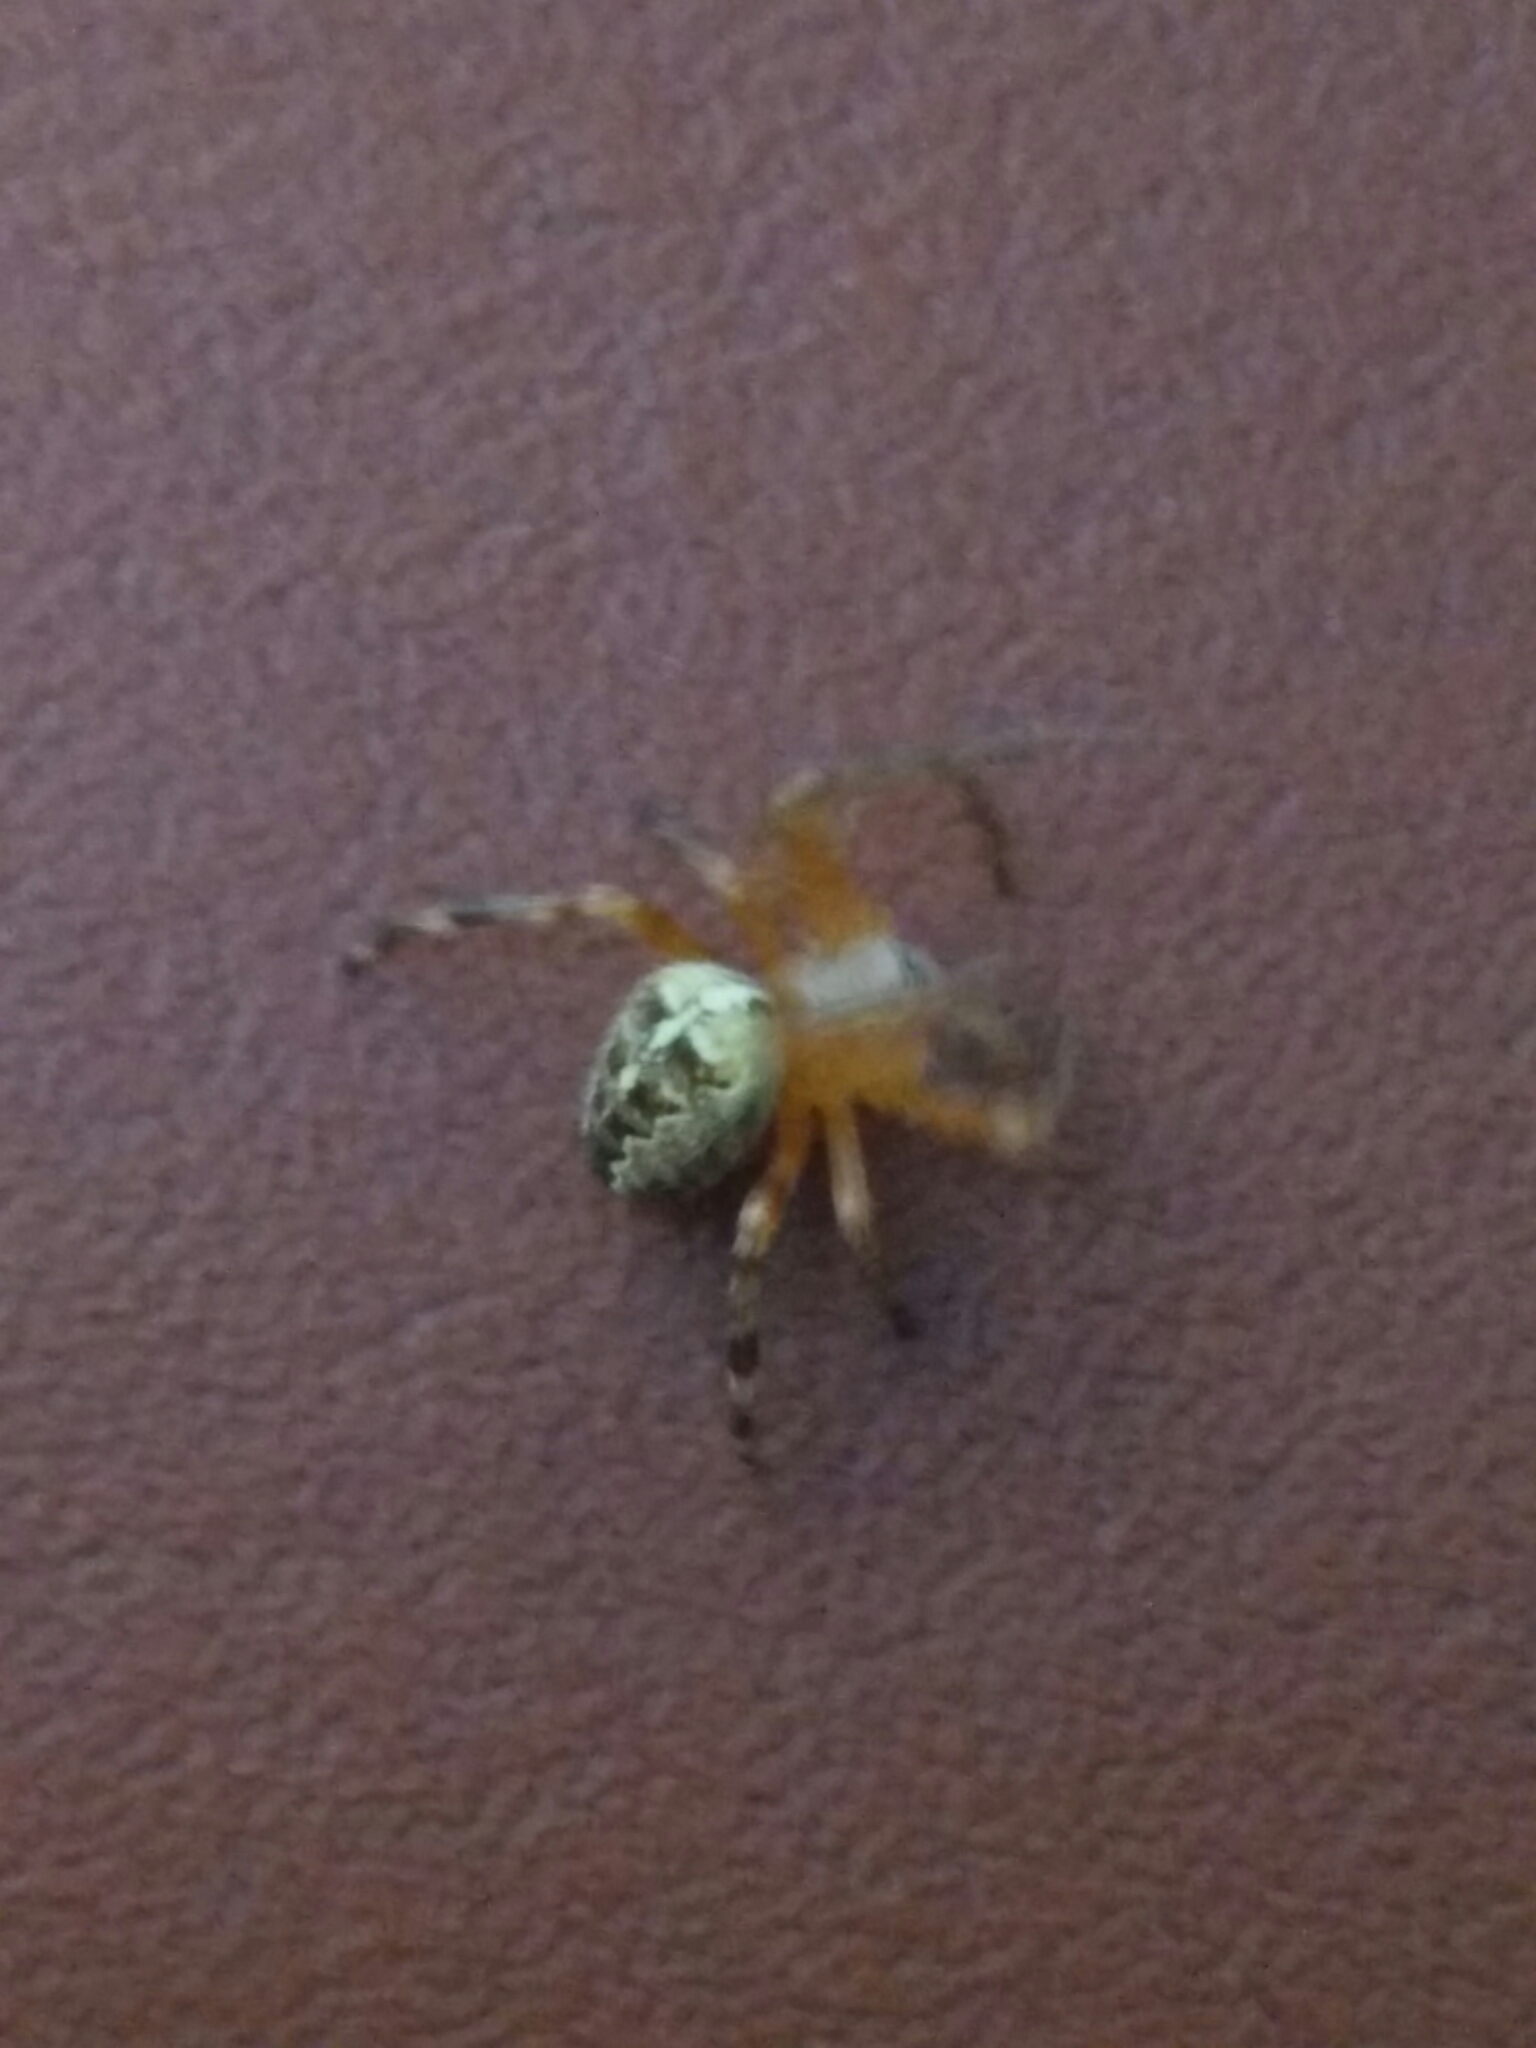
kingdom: Animalia
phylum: Arthropoda
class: Arachnida
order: Araneae
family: Araneidae
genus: Araneus
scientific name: Araneus diadematus
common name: Cross orbweaver
